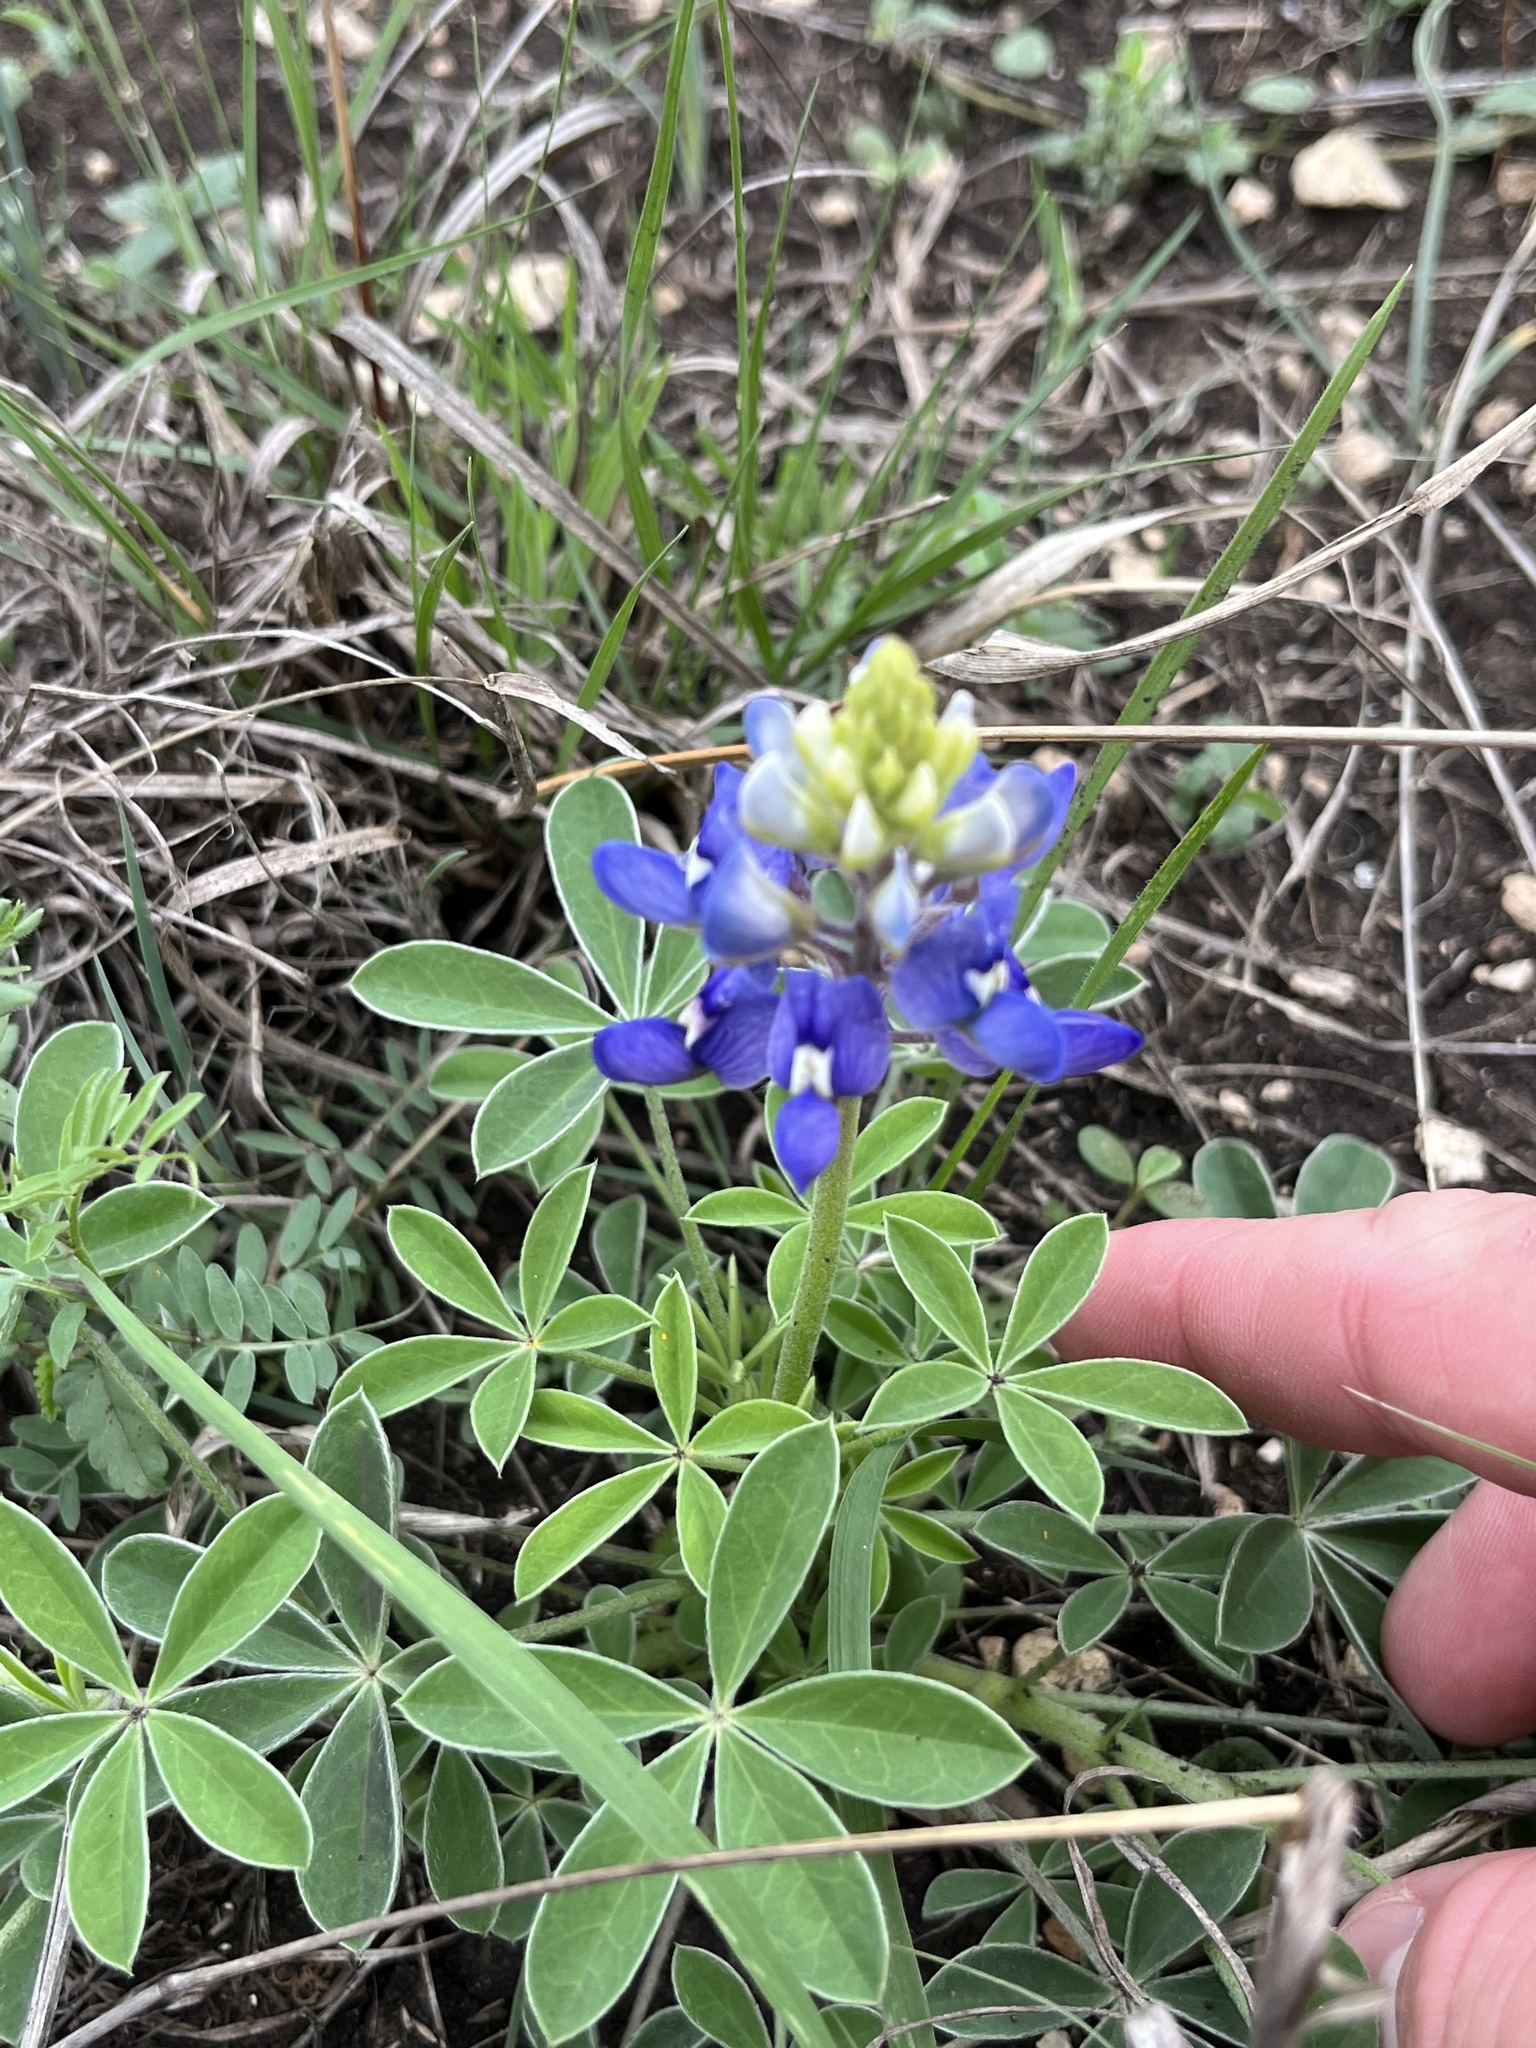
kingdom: Plantae
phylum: Tracheophyta
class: Magnoliopsida
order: Fabales
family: Fabaceae
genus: Lupinus
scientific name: Lupinus texensis
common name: Texas bluebonnet
